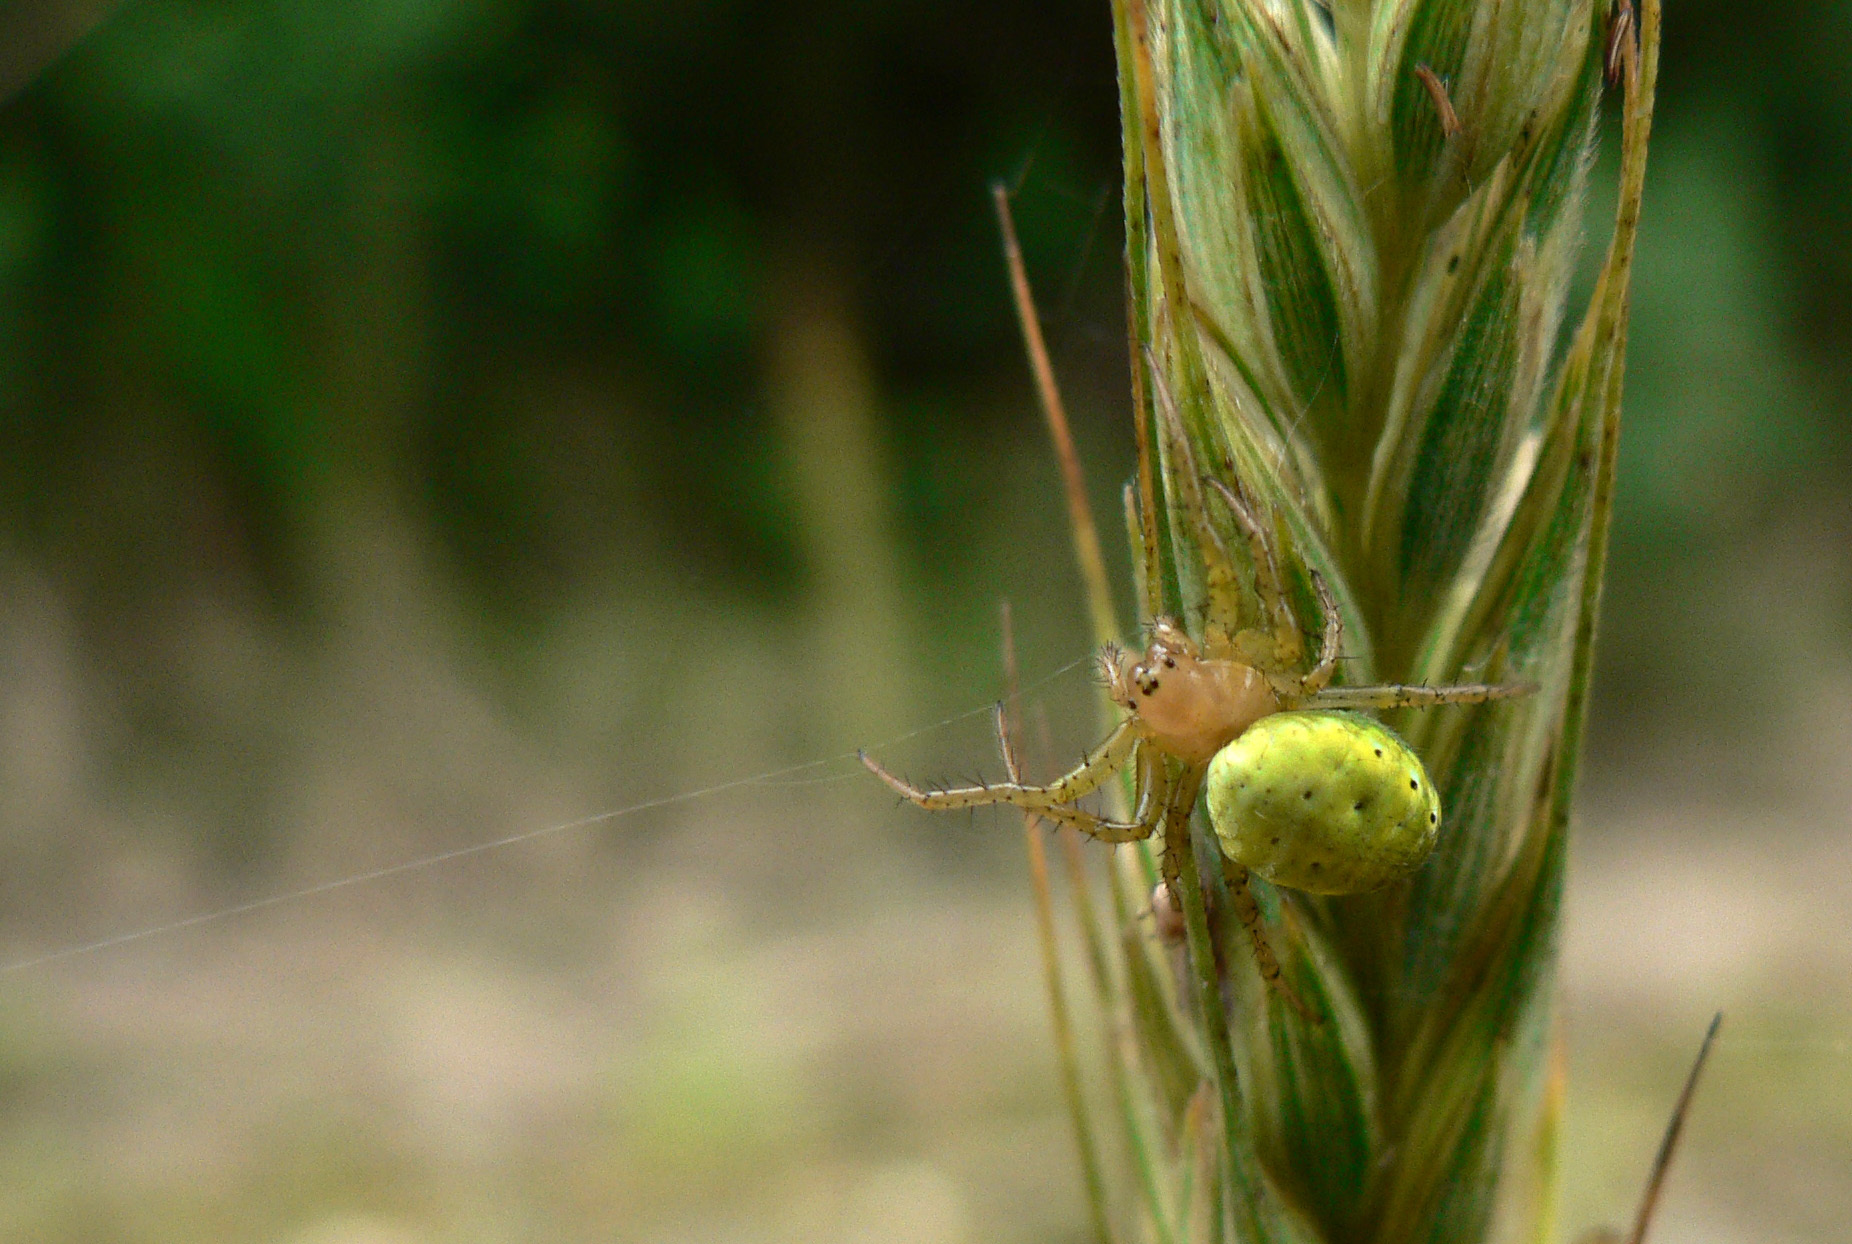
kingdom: Animalia
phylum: Arthropoda
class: Arachnida
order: Araneae
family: Araneidae
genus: Araniella
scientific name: Araniella
